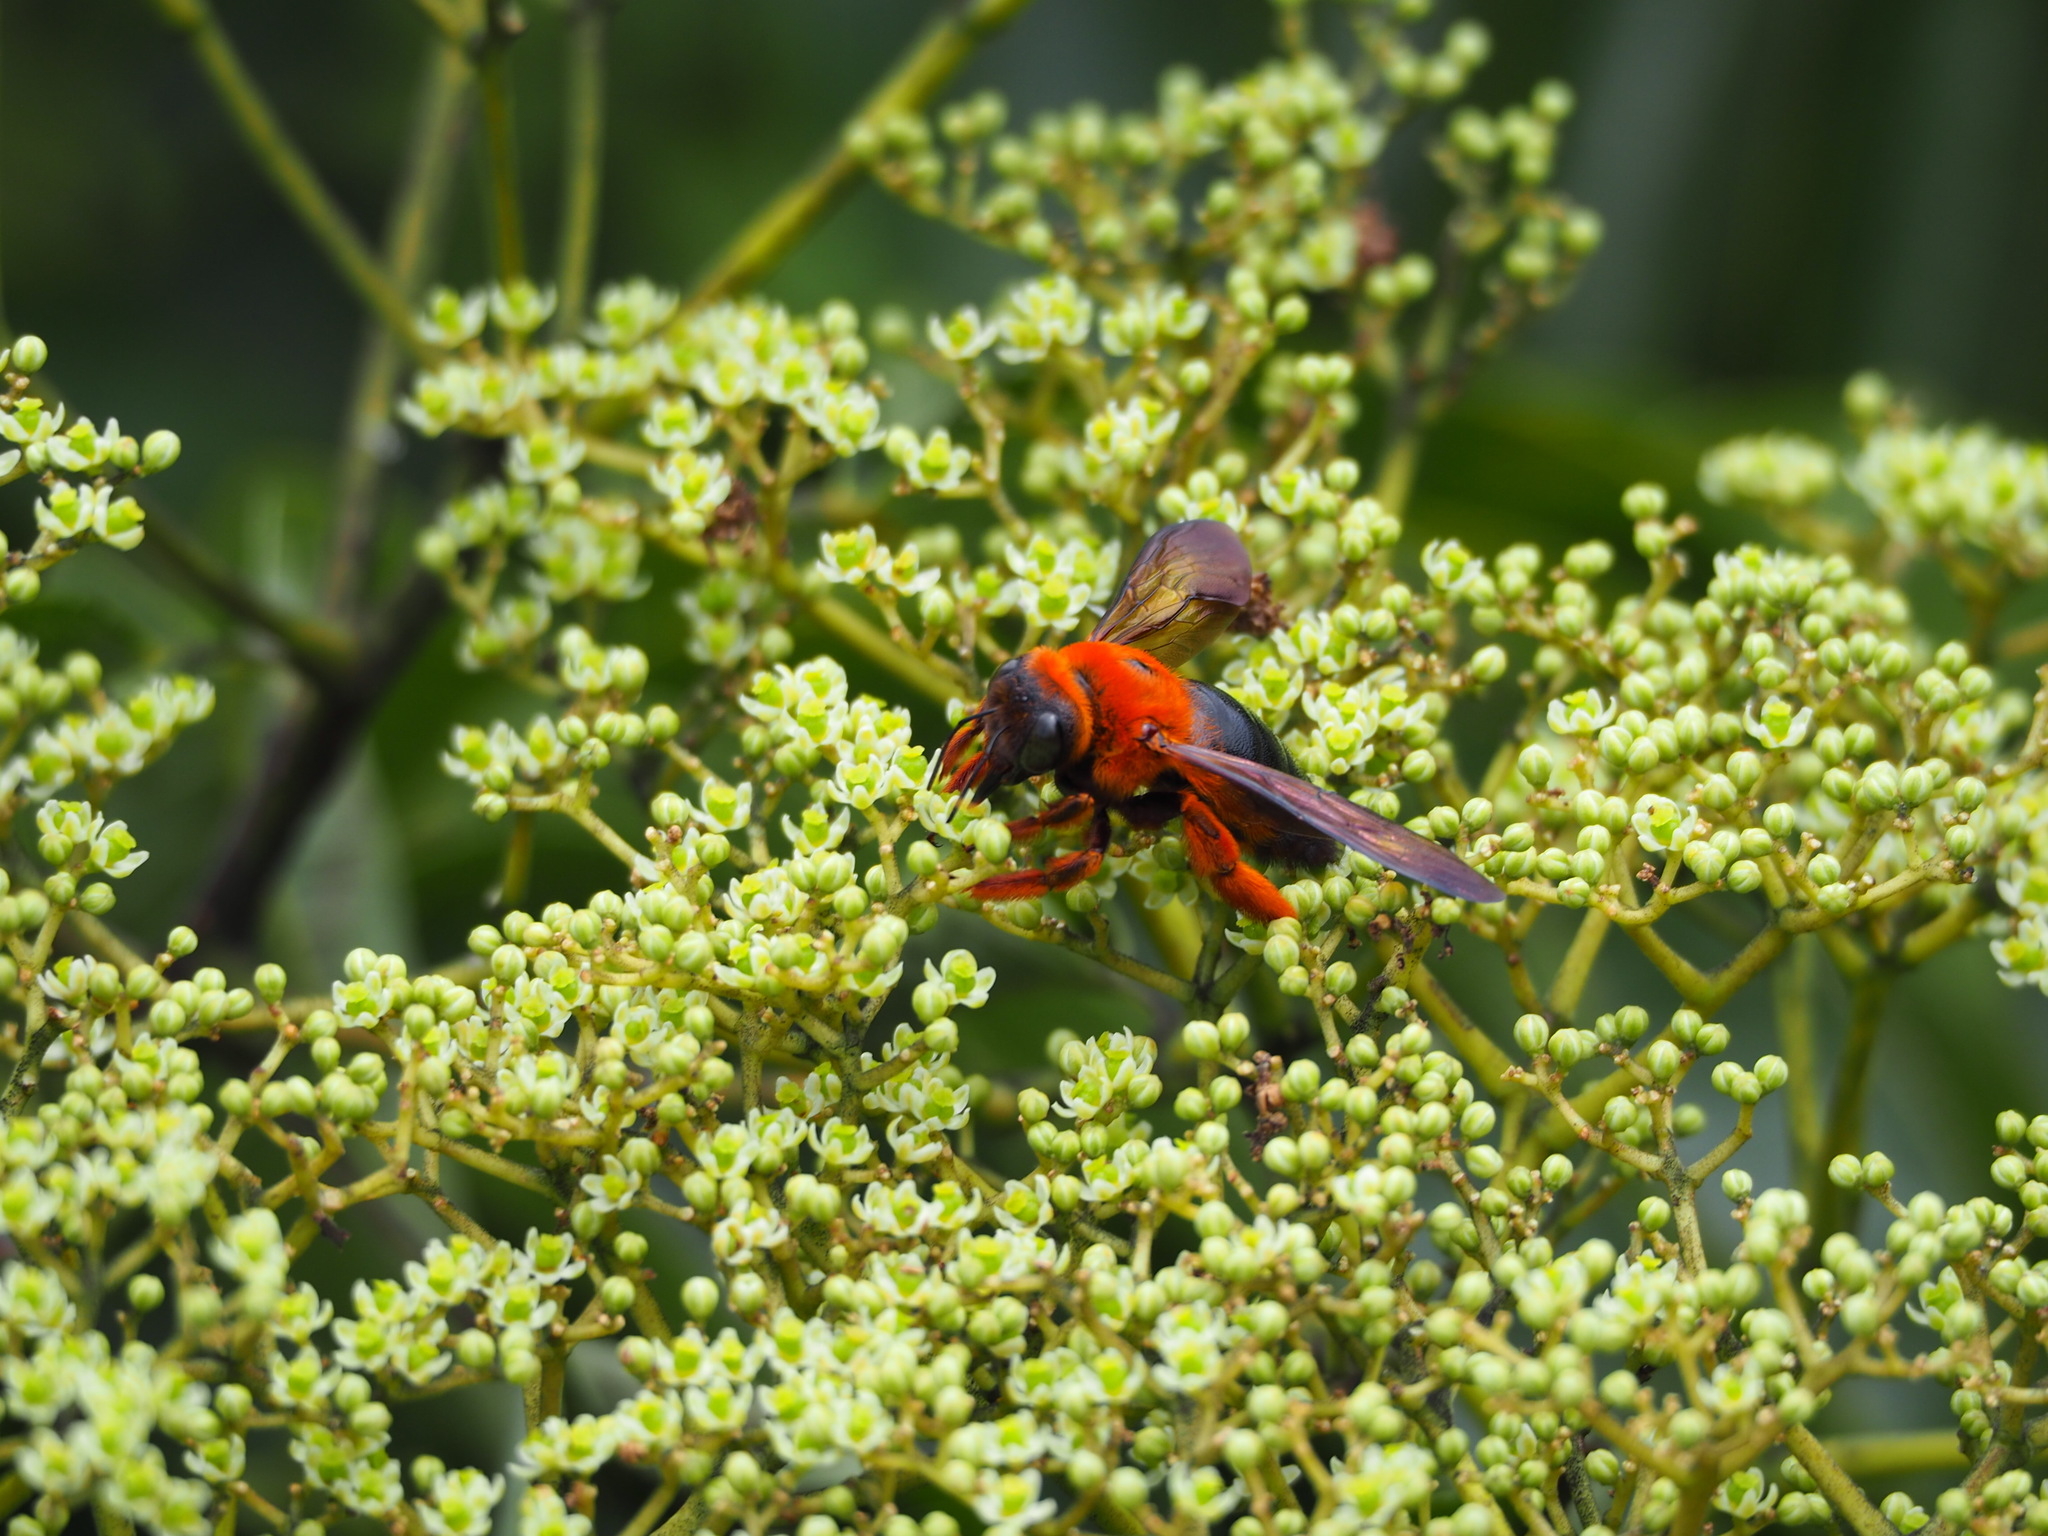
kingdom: Animalia
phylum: Arthropoda
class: Insecta
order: Hymenoptera
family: Apidae
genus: Xylocopa
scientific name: Xylocopa ruficeps
